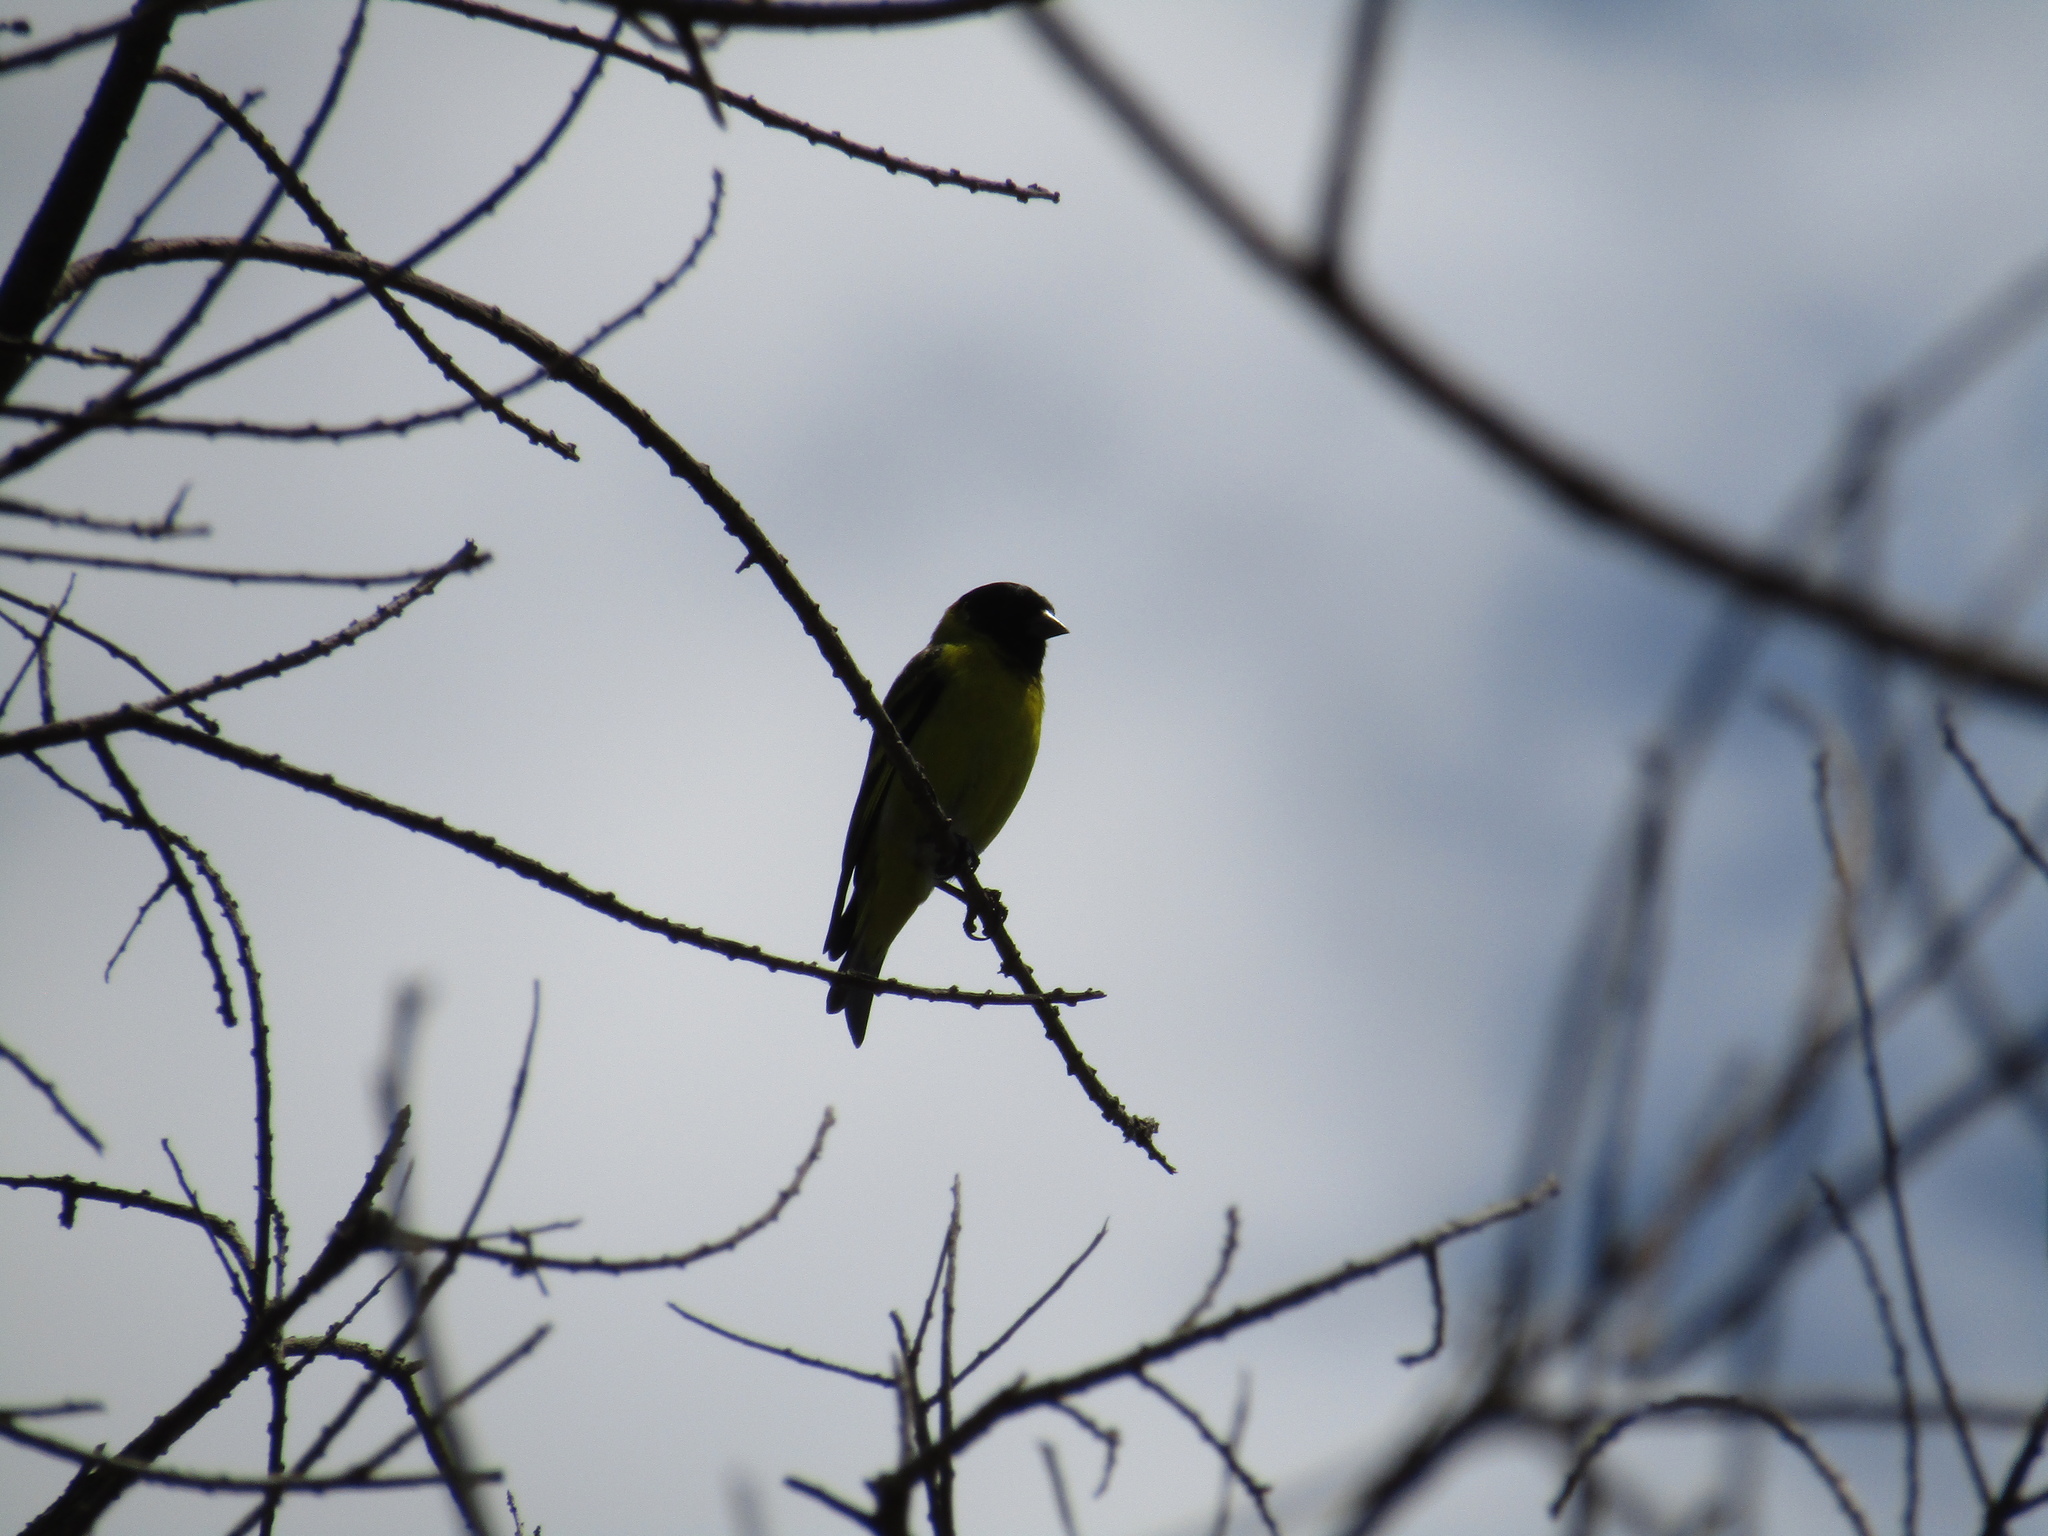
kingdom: Animalia
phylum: Chordata
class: Aves
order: Passeriformes
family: Fringillidae
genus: Spinus
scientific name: Spinus magellanicus
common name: Hooded siskin
